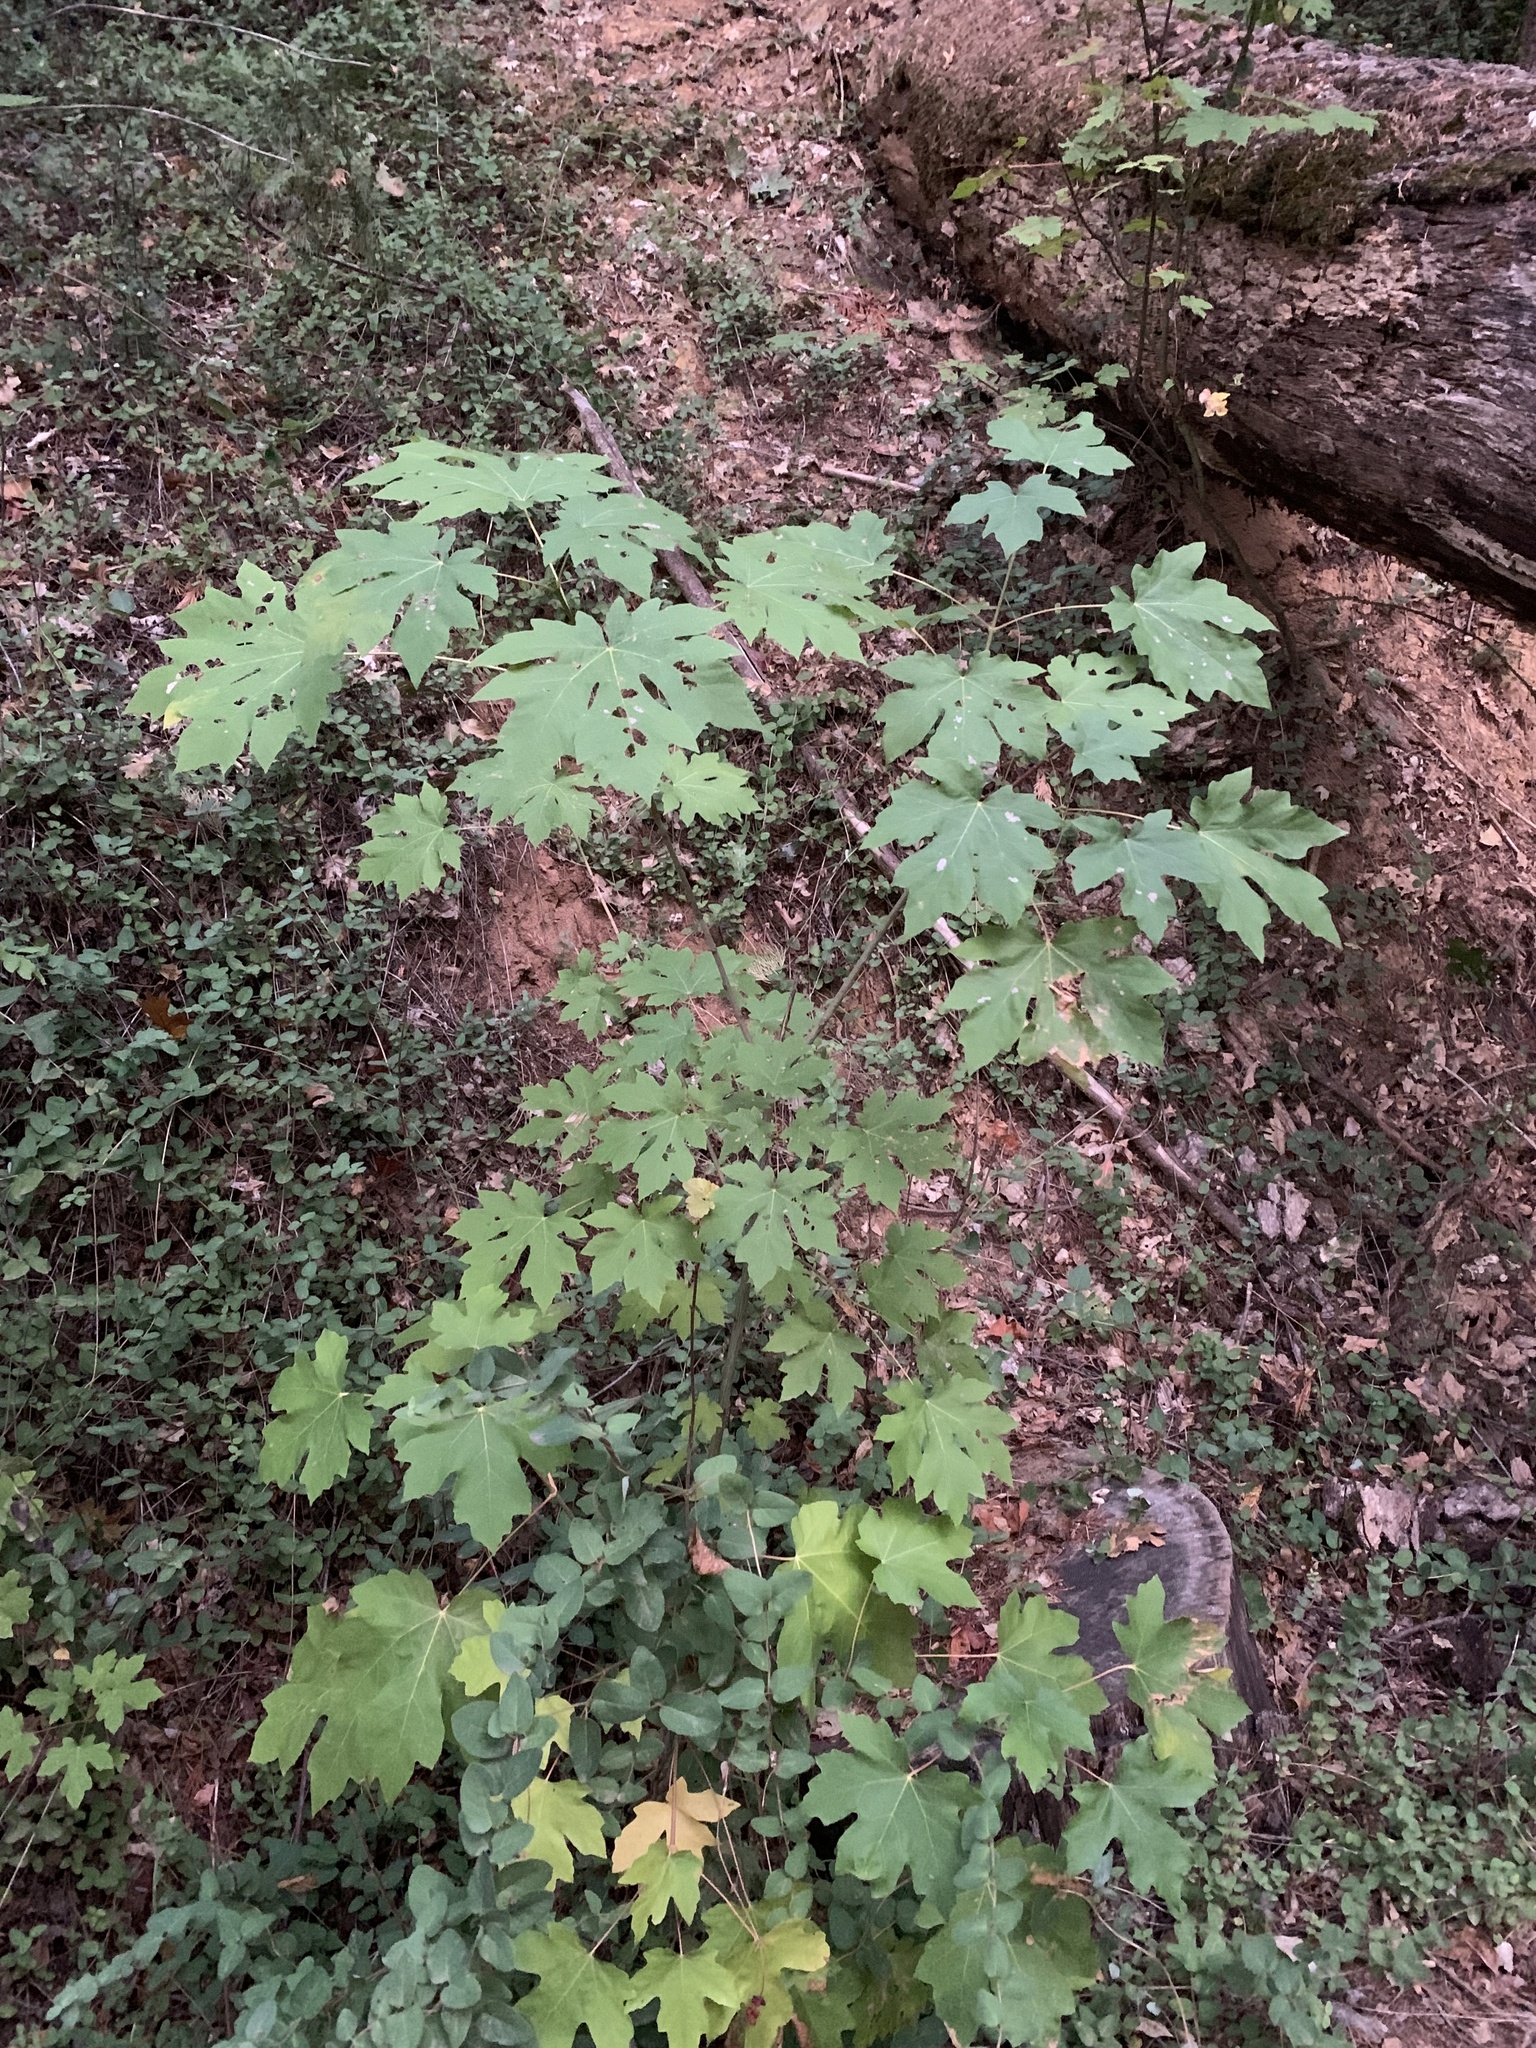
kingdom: Plantae
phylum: Tracheophyta
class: Magnoliopsida
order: Sapindales
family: Sapindaceae
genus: Acer
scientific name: Acer macrophyllum
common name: Oregon maple
